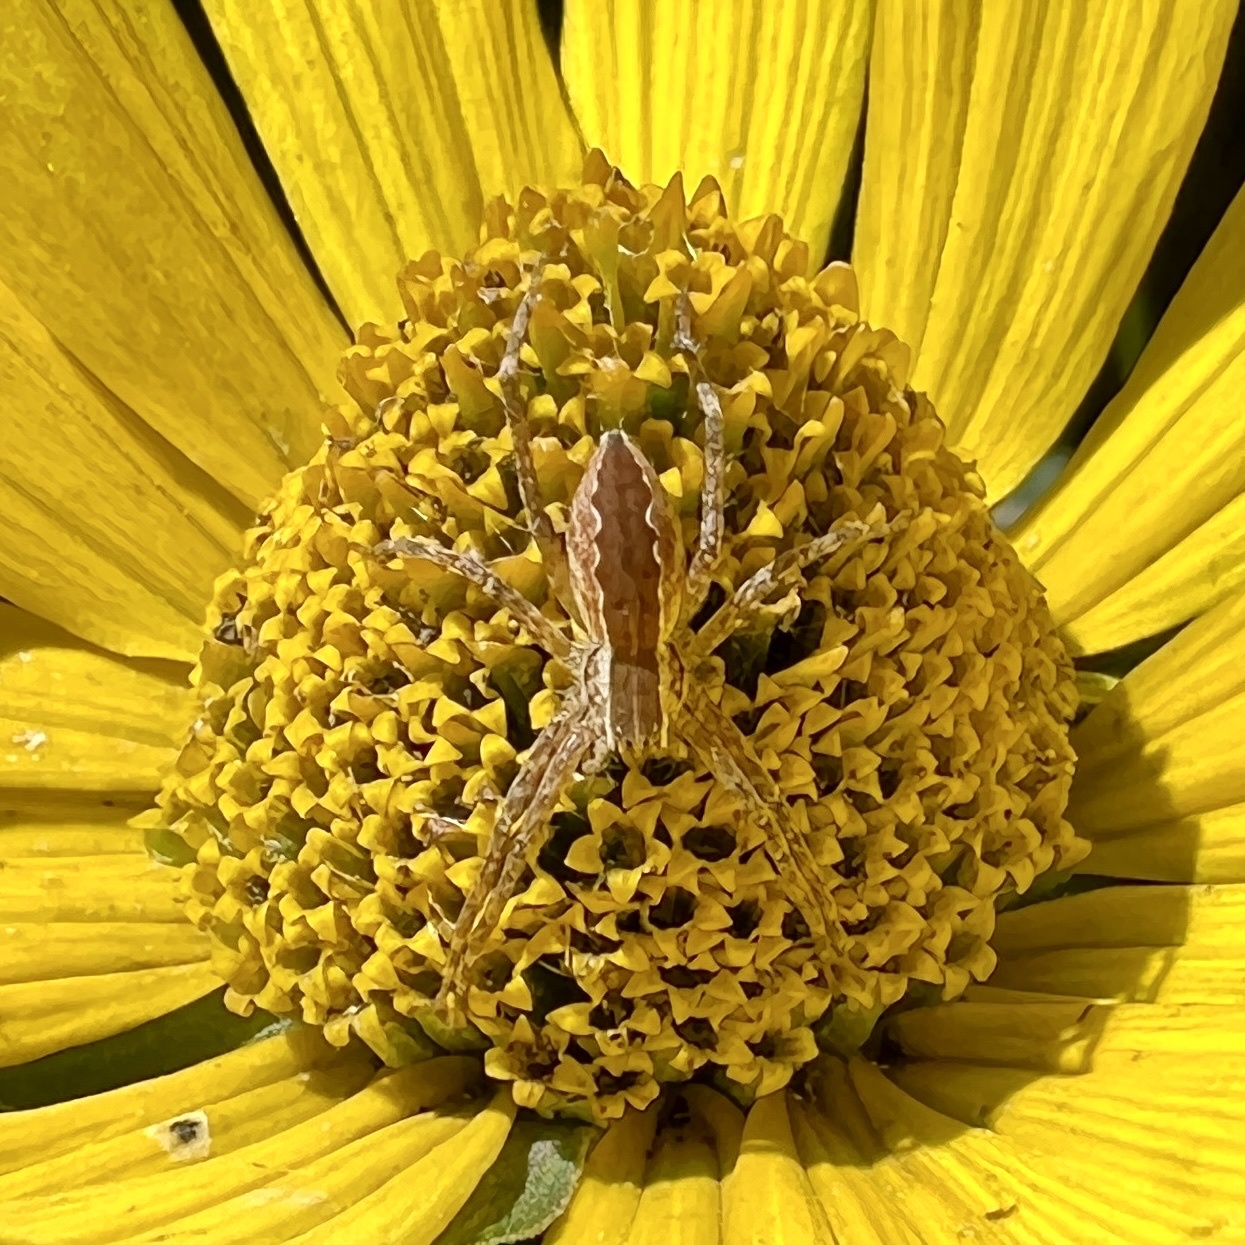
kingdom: Animalia
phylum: Arthropoda
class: Arachnida
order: Araneae
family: Pisauridae
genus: Pisaurina
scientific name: Pisaurina mira
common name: American nursery web spider
